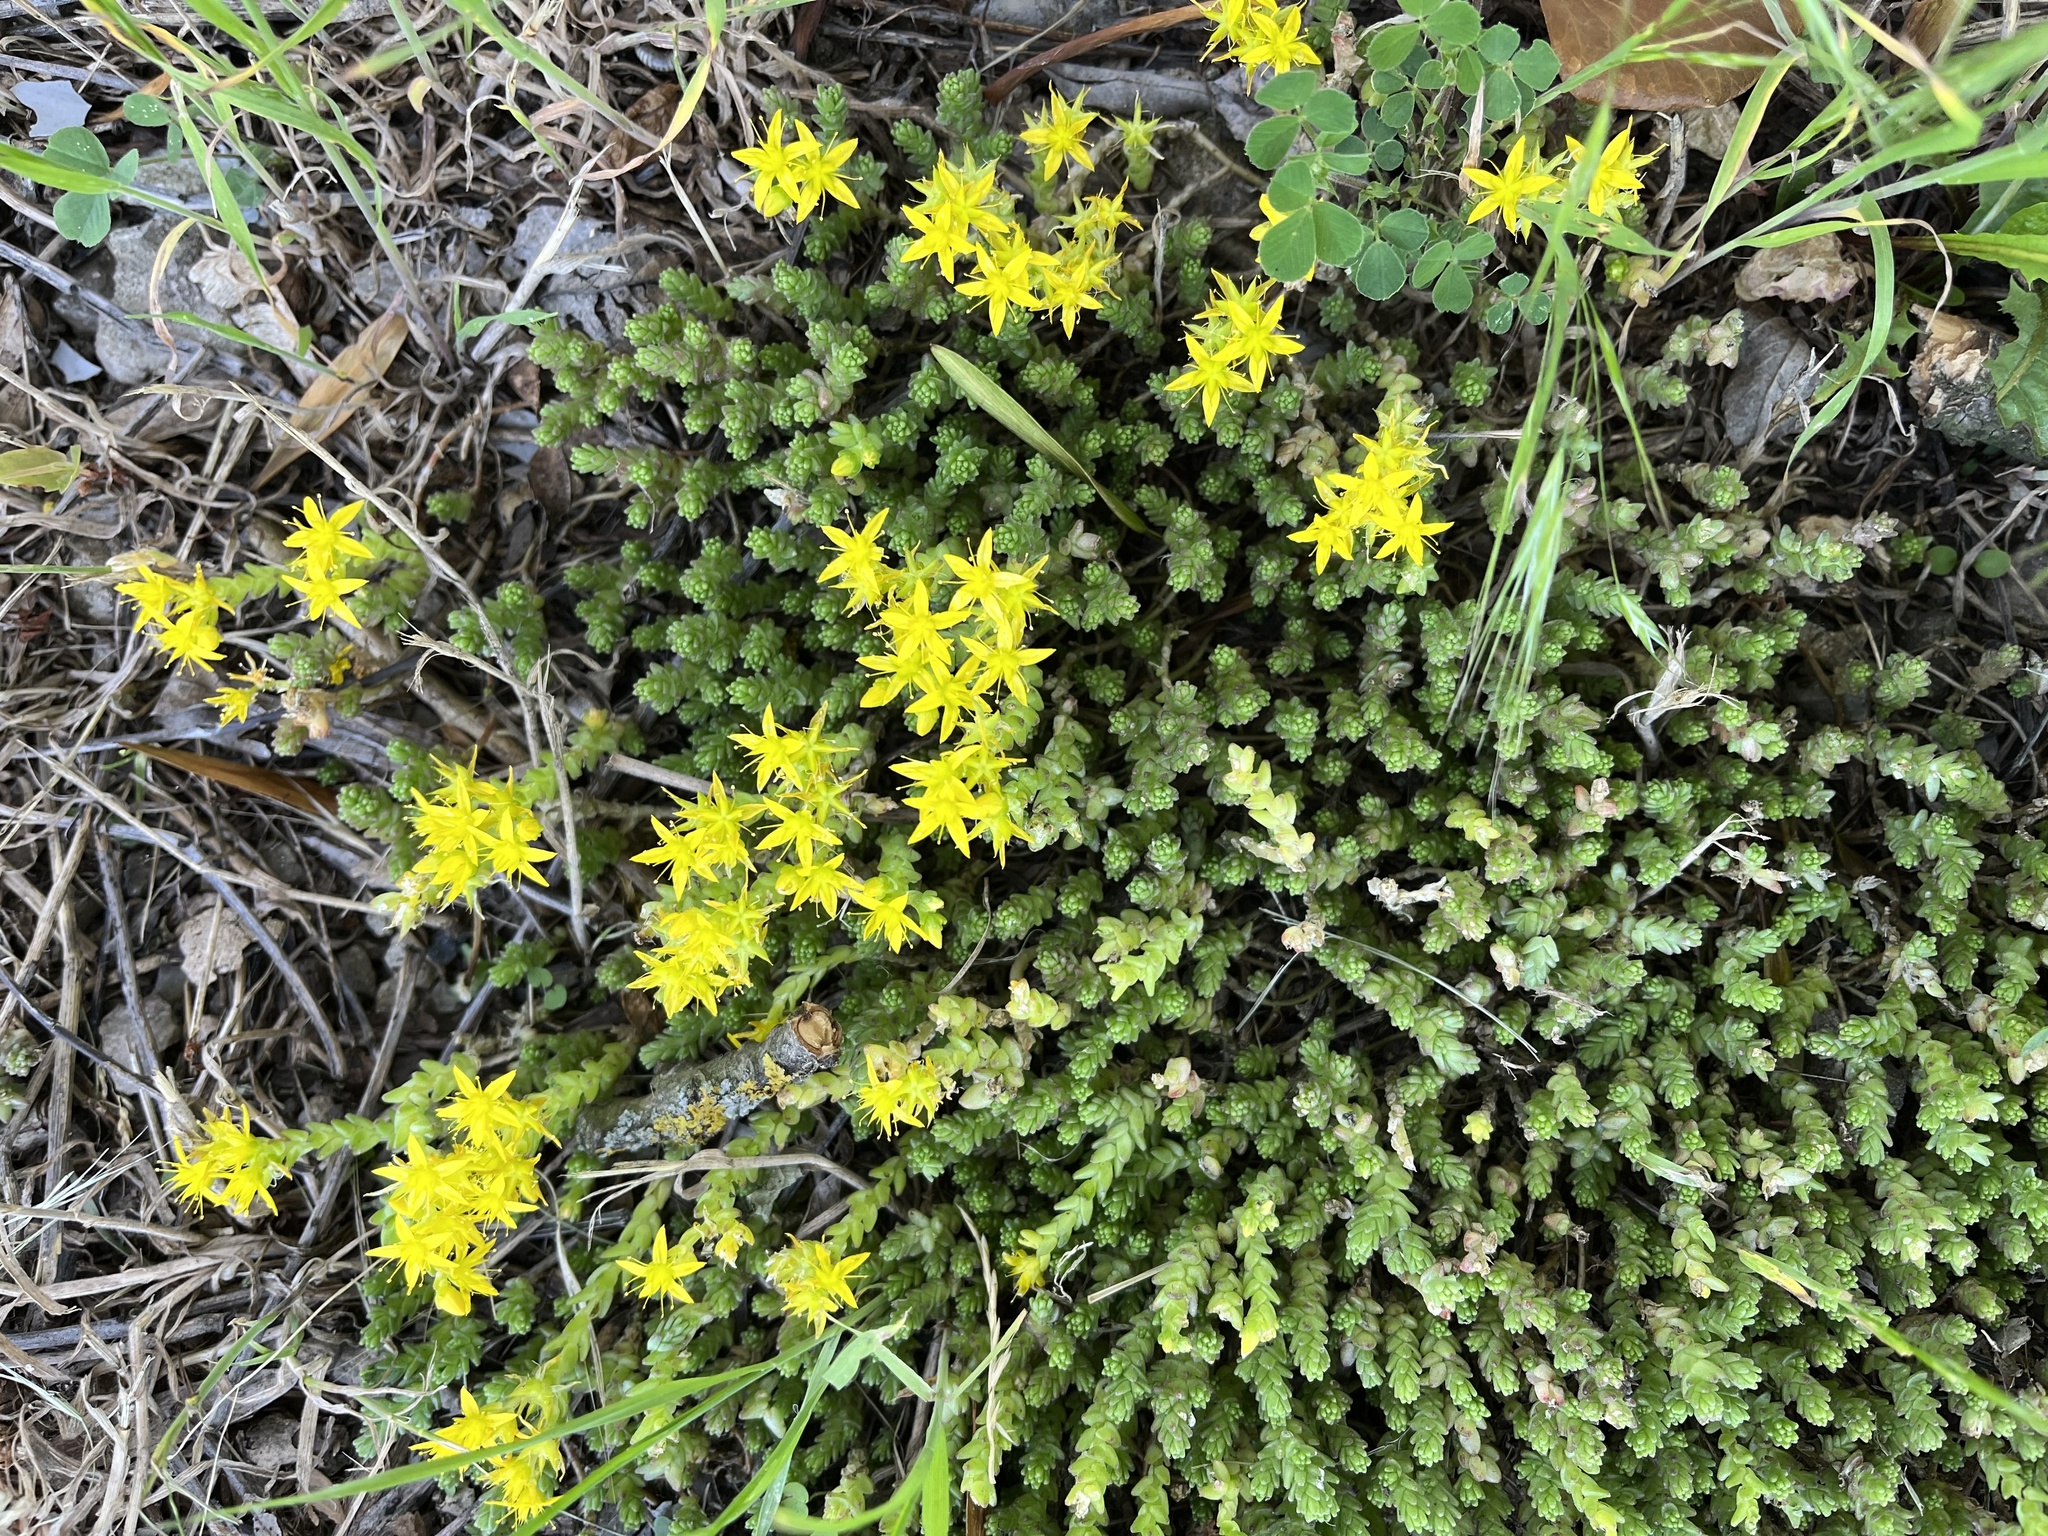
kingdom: Plantae
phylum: Tracheophyta
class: Magnoliopsida
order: Saxifragales
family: Crassulaceae
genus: Sedum
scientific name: Sedum acre
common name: Biting stonecrop
